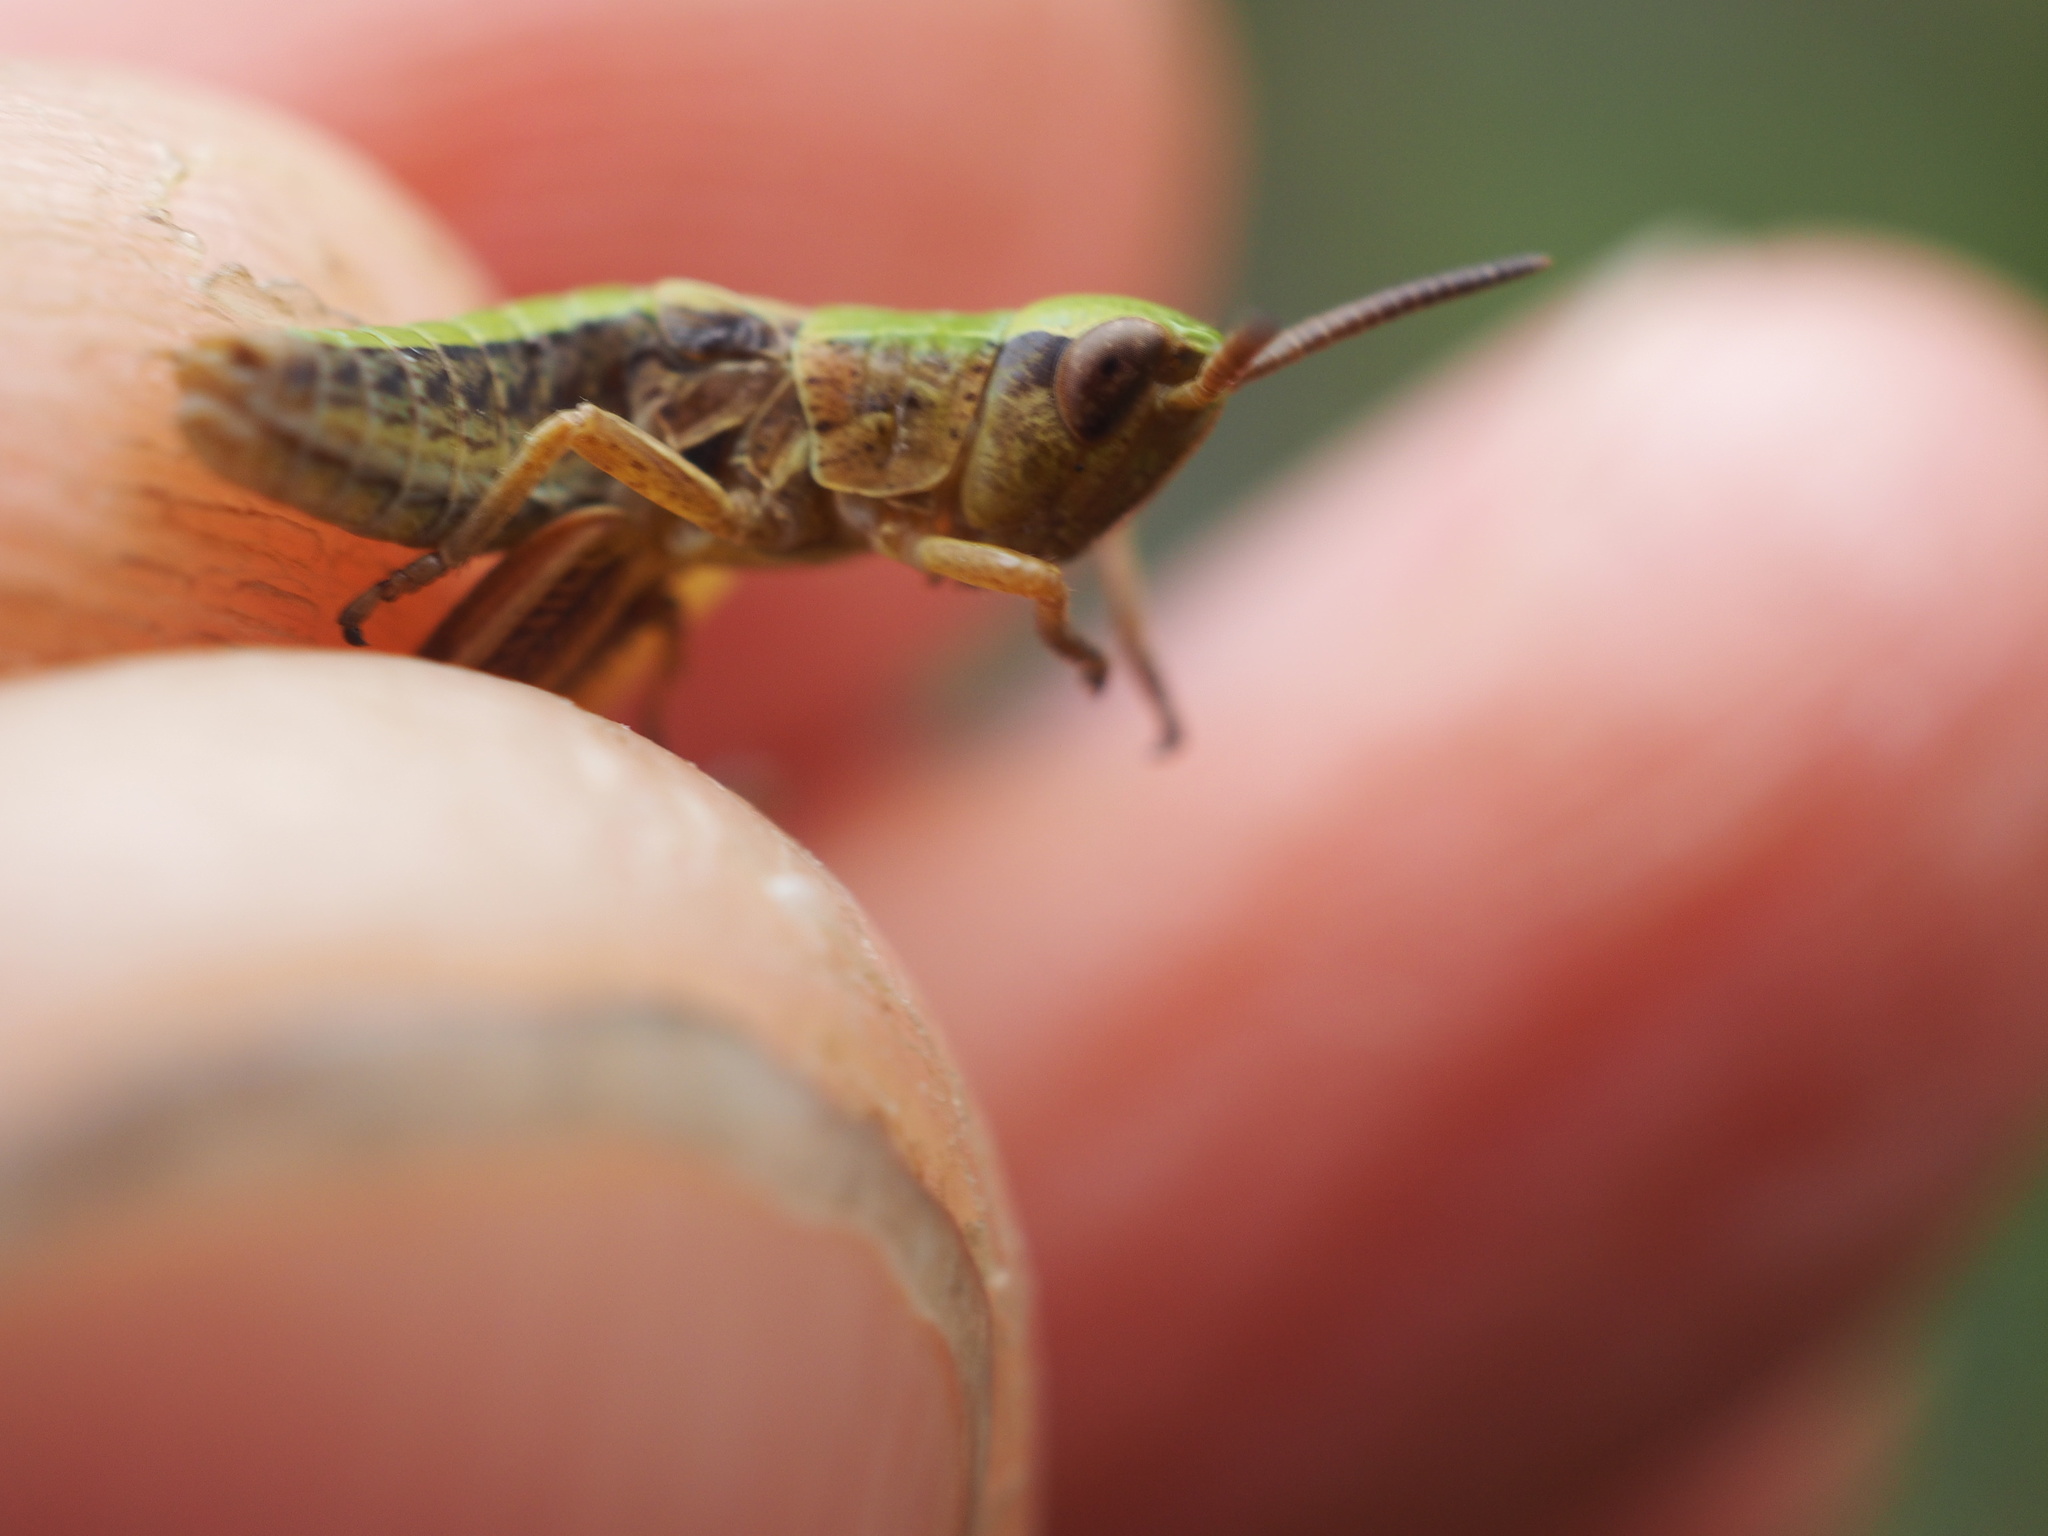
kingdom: Animalia
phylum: Arthropoda
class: Insecta
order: Orthoptera
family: Acrididae
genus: Pseudochorthippus
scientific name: Pseudochorthippus parallelus
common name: Meadow grasshopper
